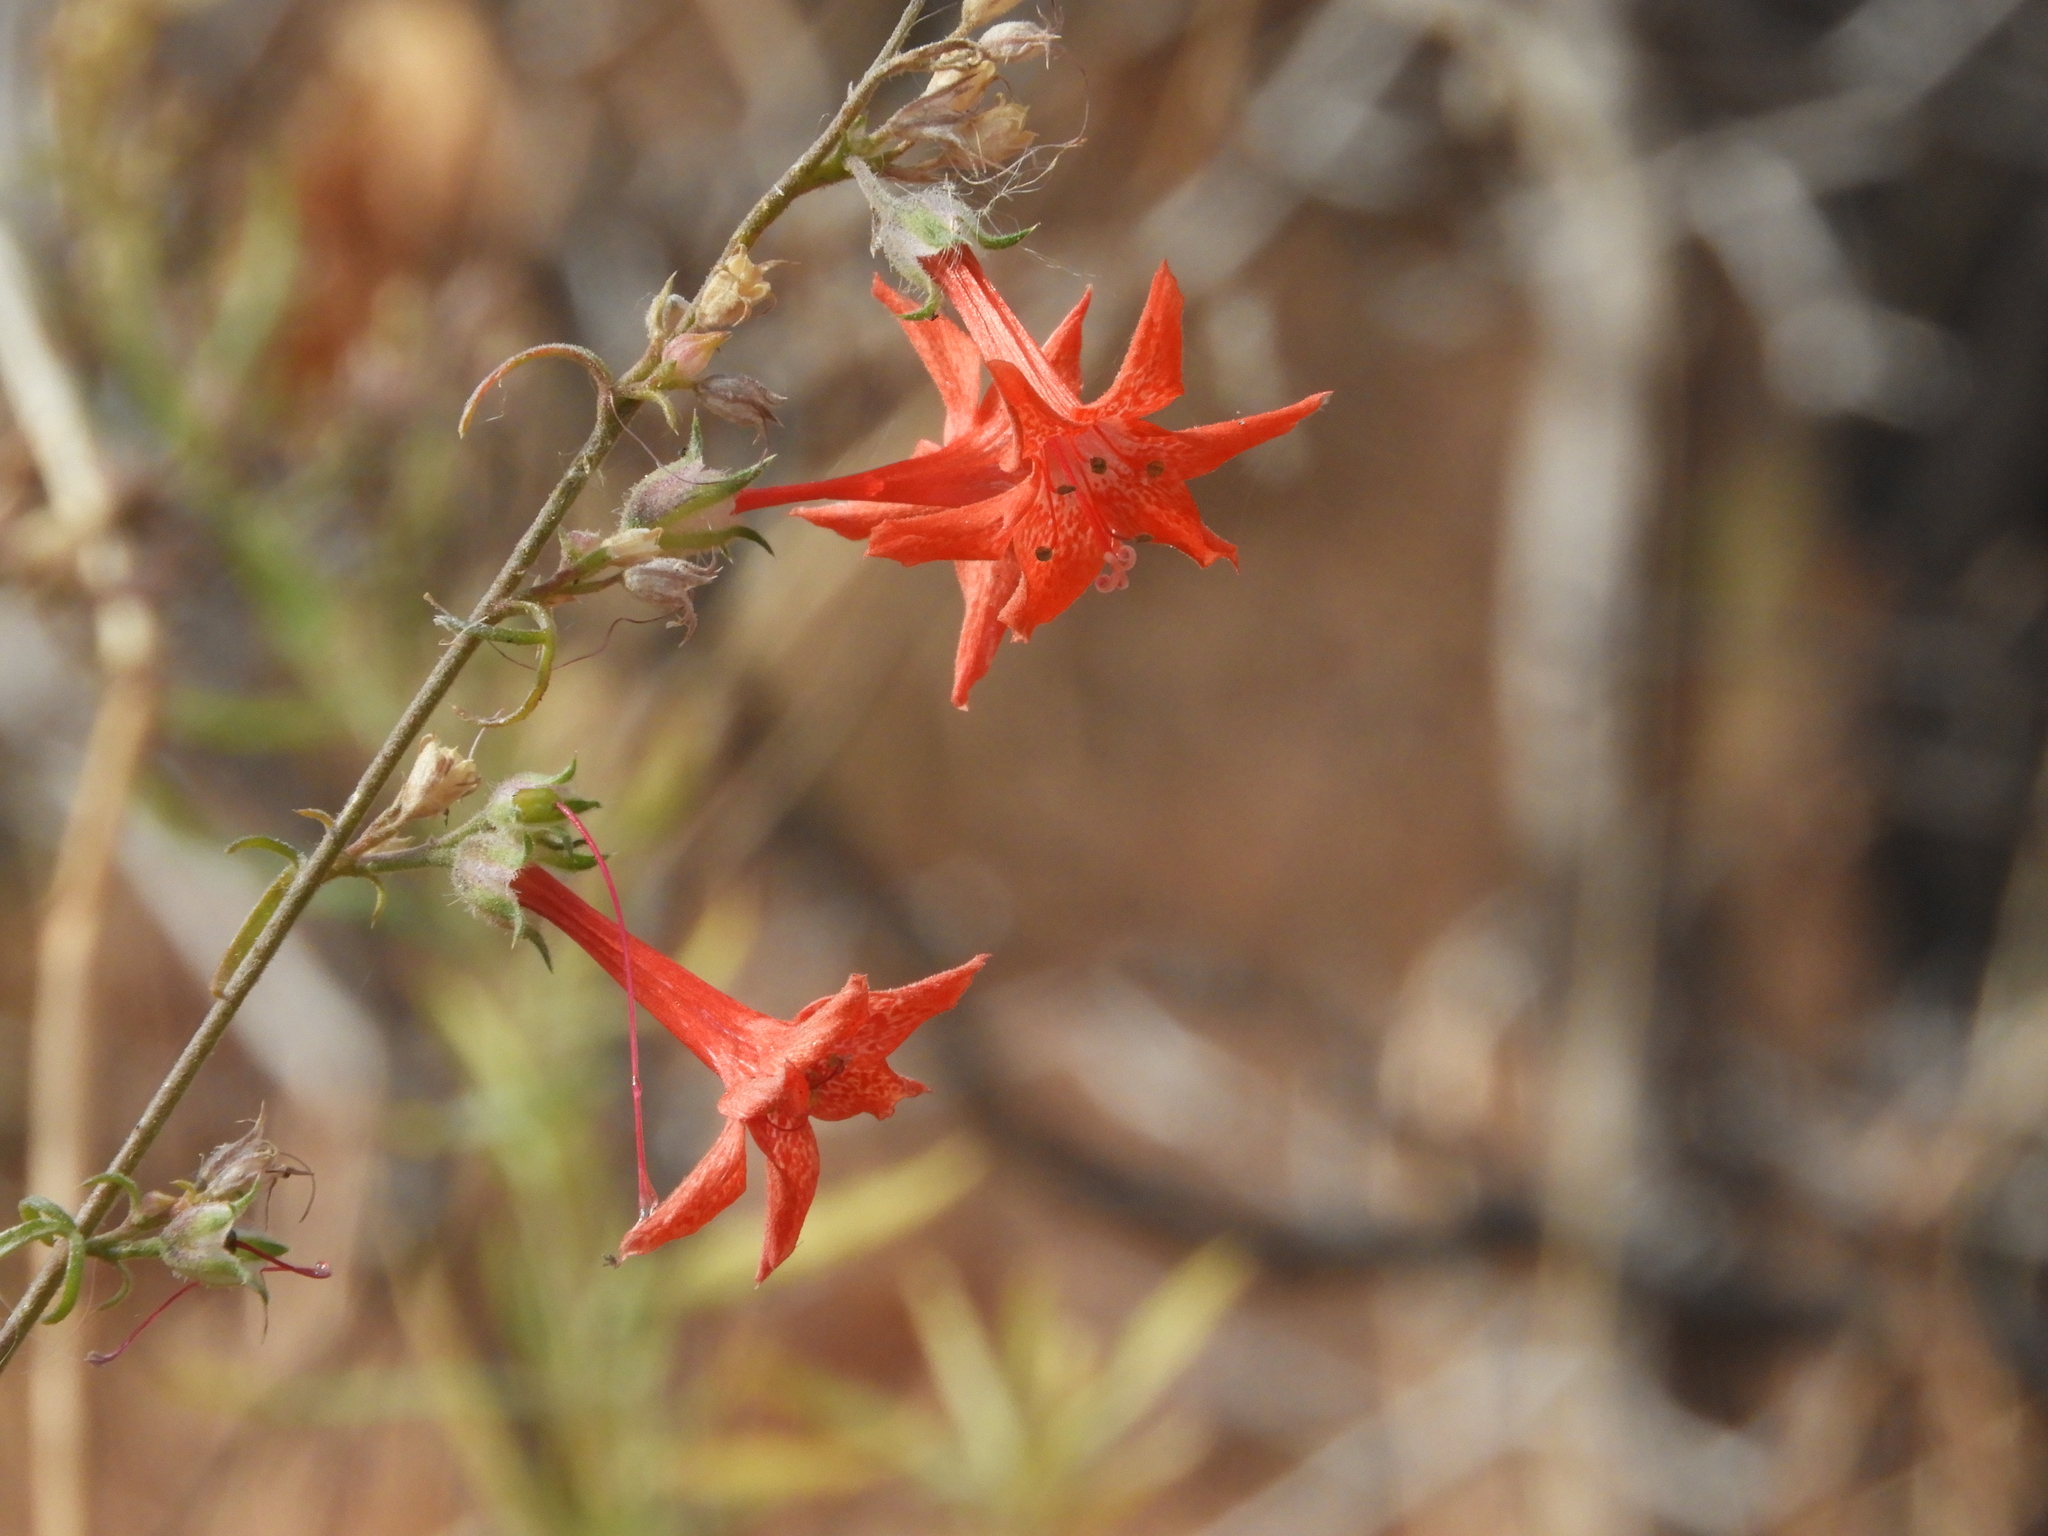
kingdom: Plantae
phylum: Tracheophyta
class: Magnoliopsida
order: Ericales
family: Polemoniaceae
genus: Ipomopsis
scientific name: Ipomopsis aggregata
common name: Scarlet gilia
